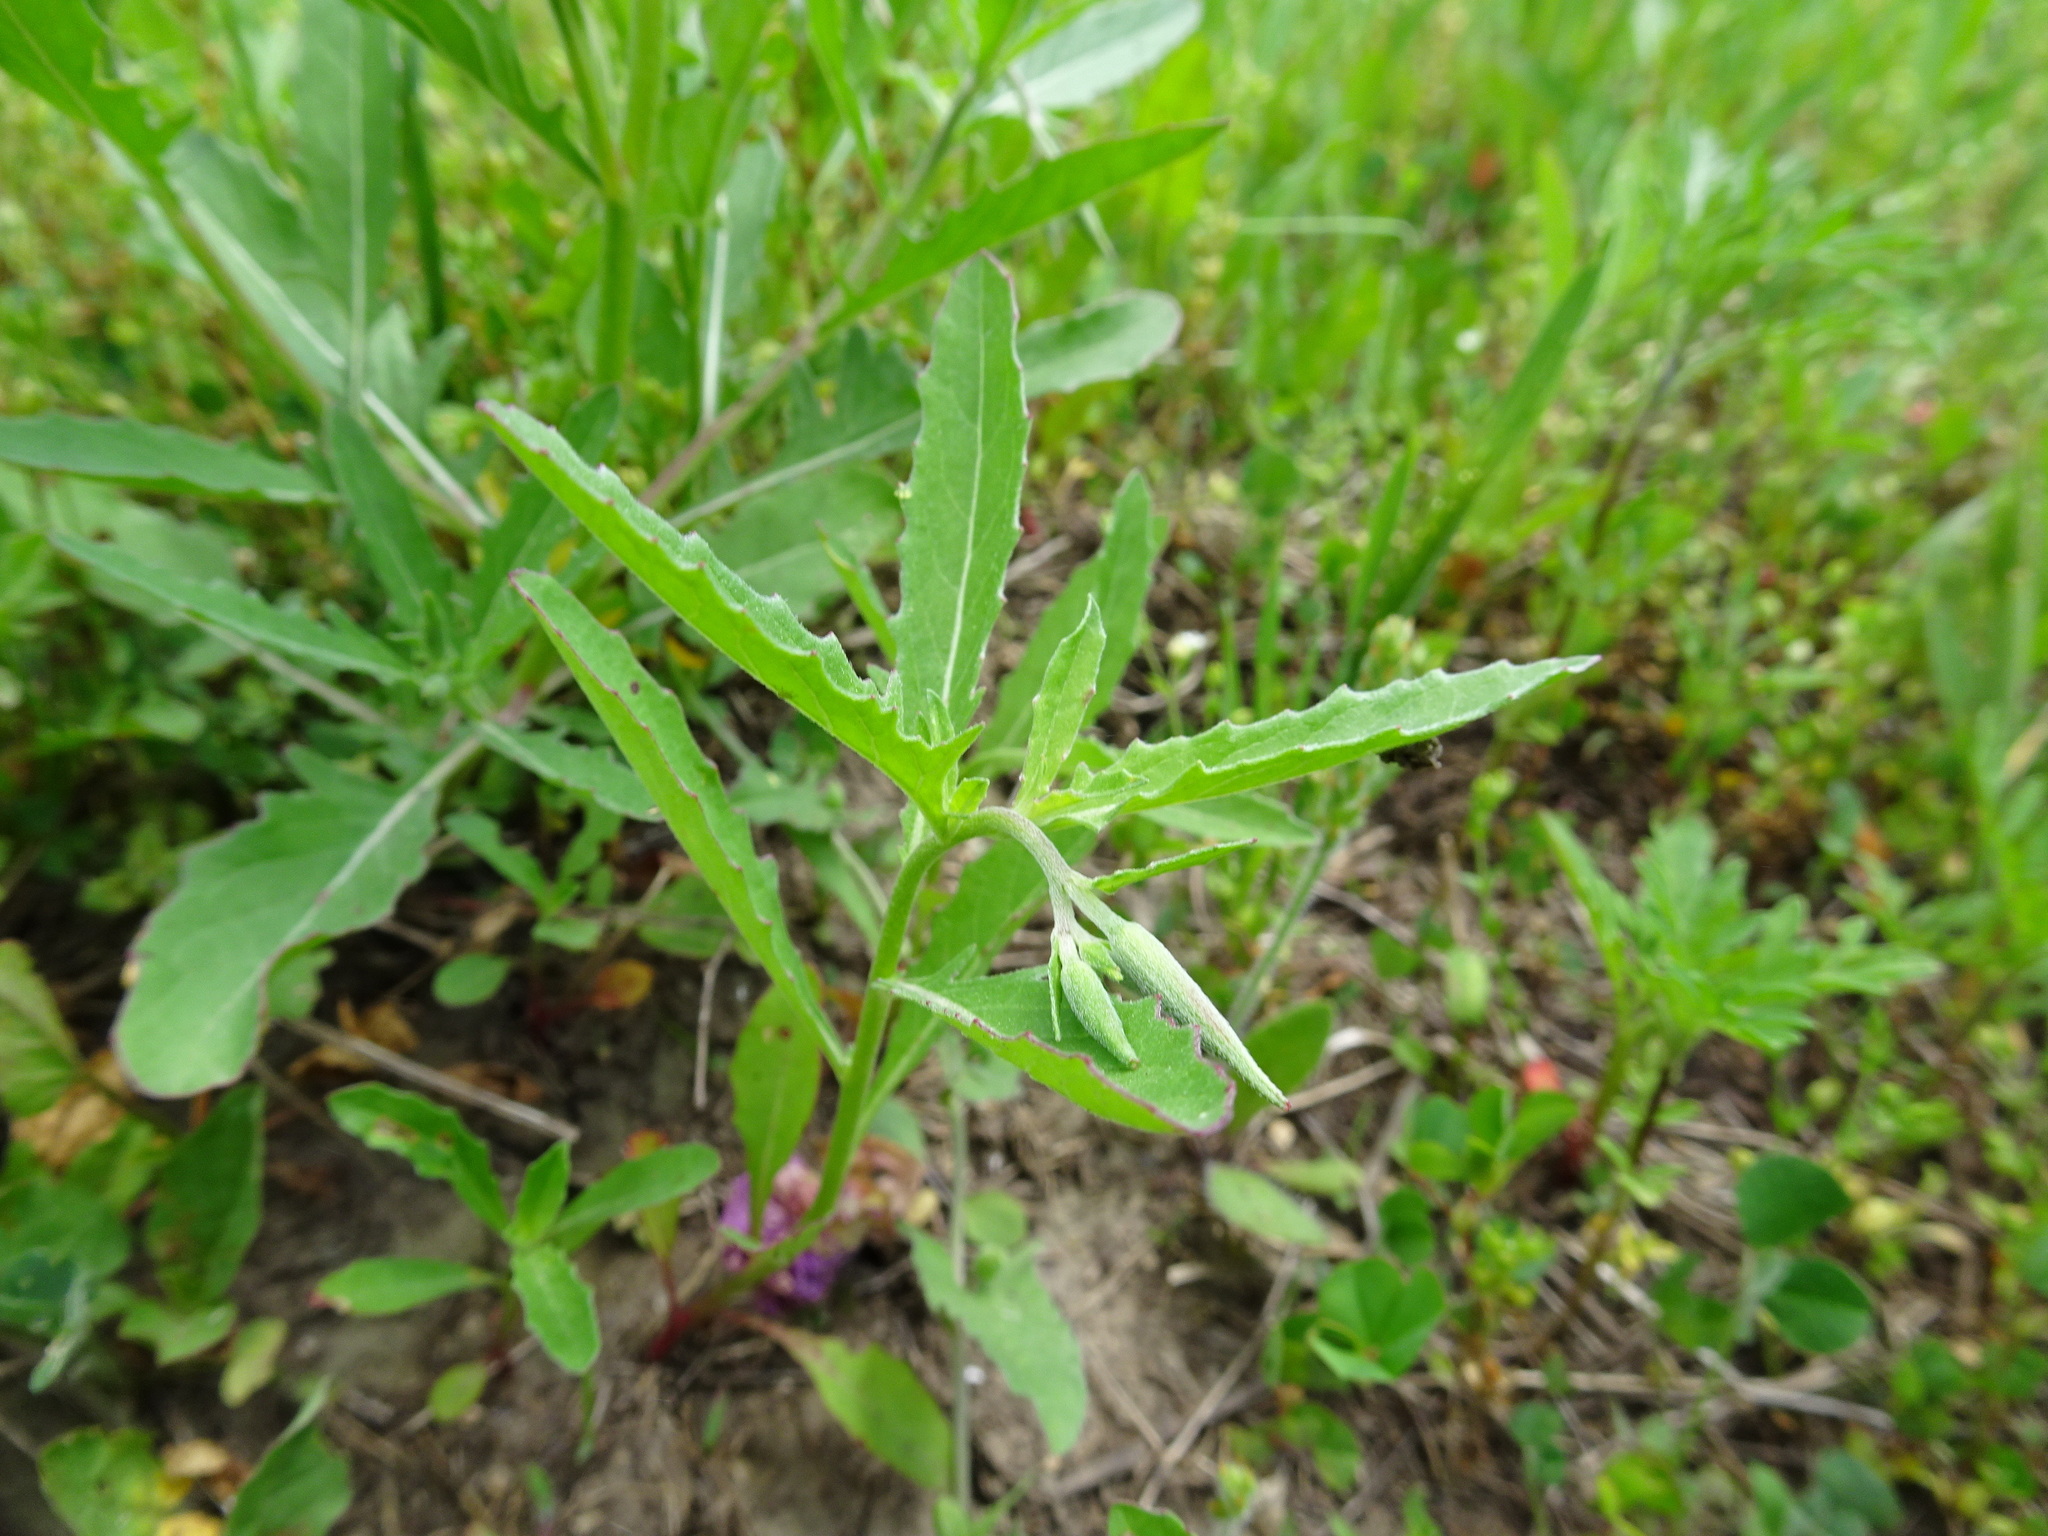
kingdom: Plantae
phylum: Tracheophyta
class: Magnoliopsida
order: Myrtales
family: Onagraceae
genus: Oenothera
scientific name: Oenothera speciosa
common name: White evening-primrose
